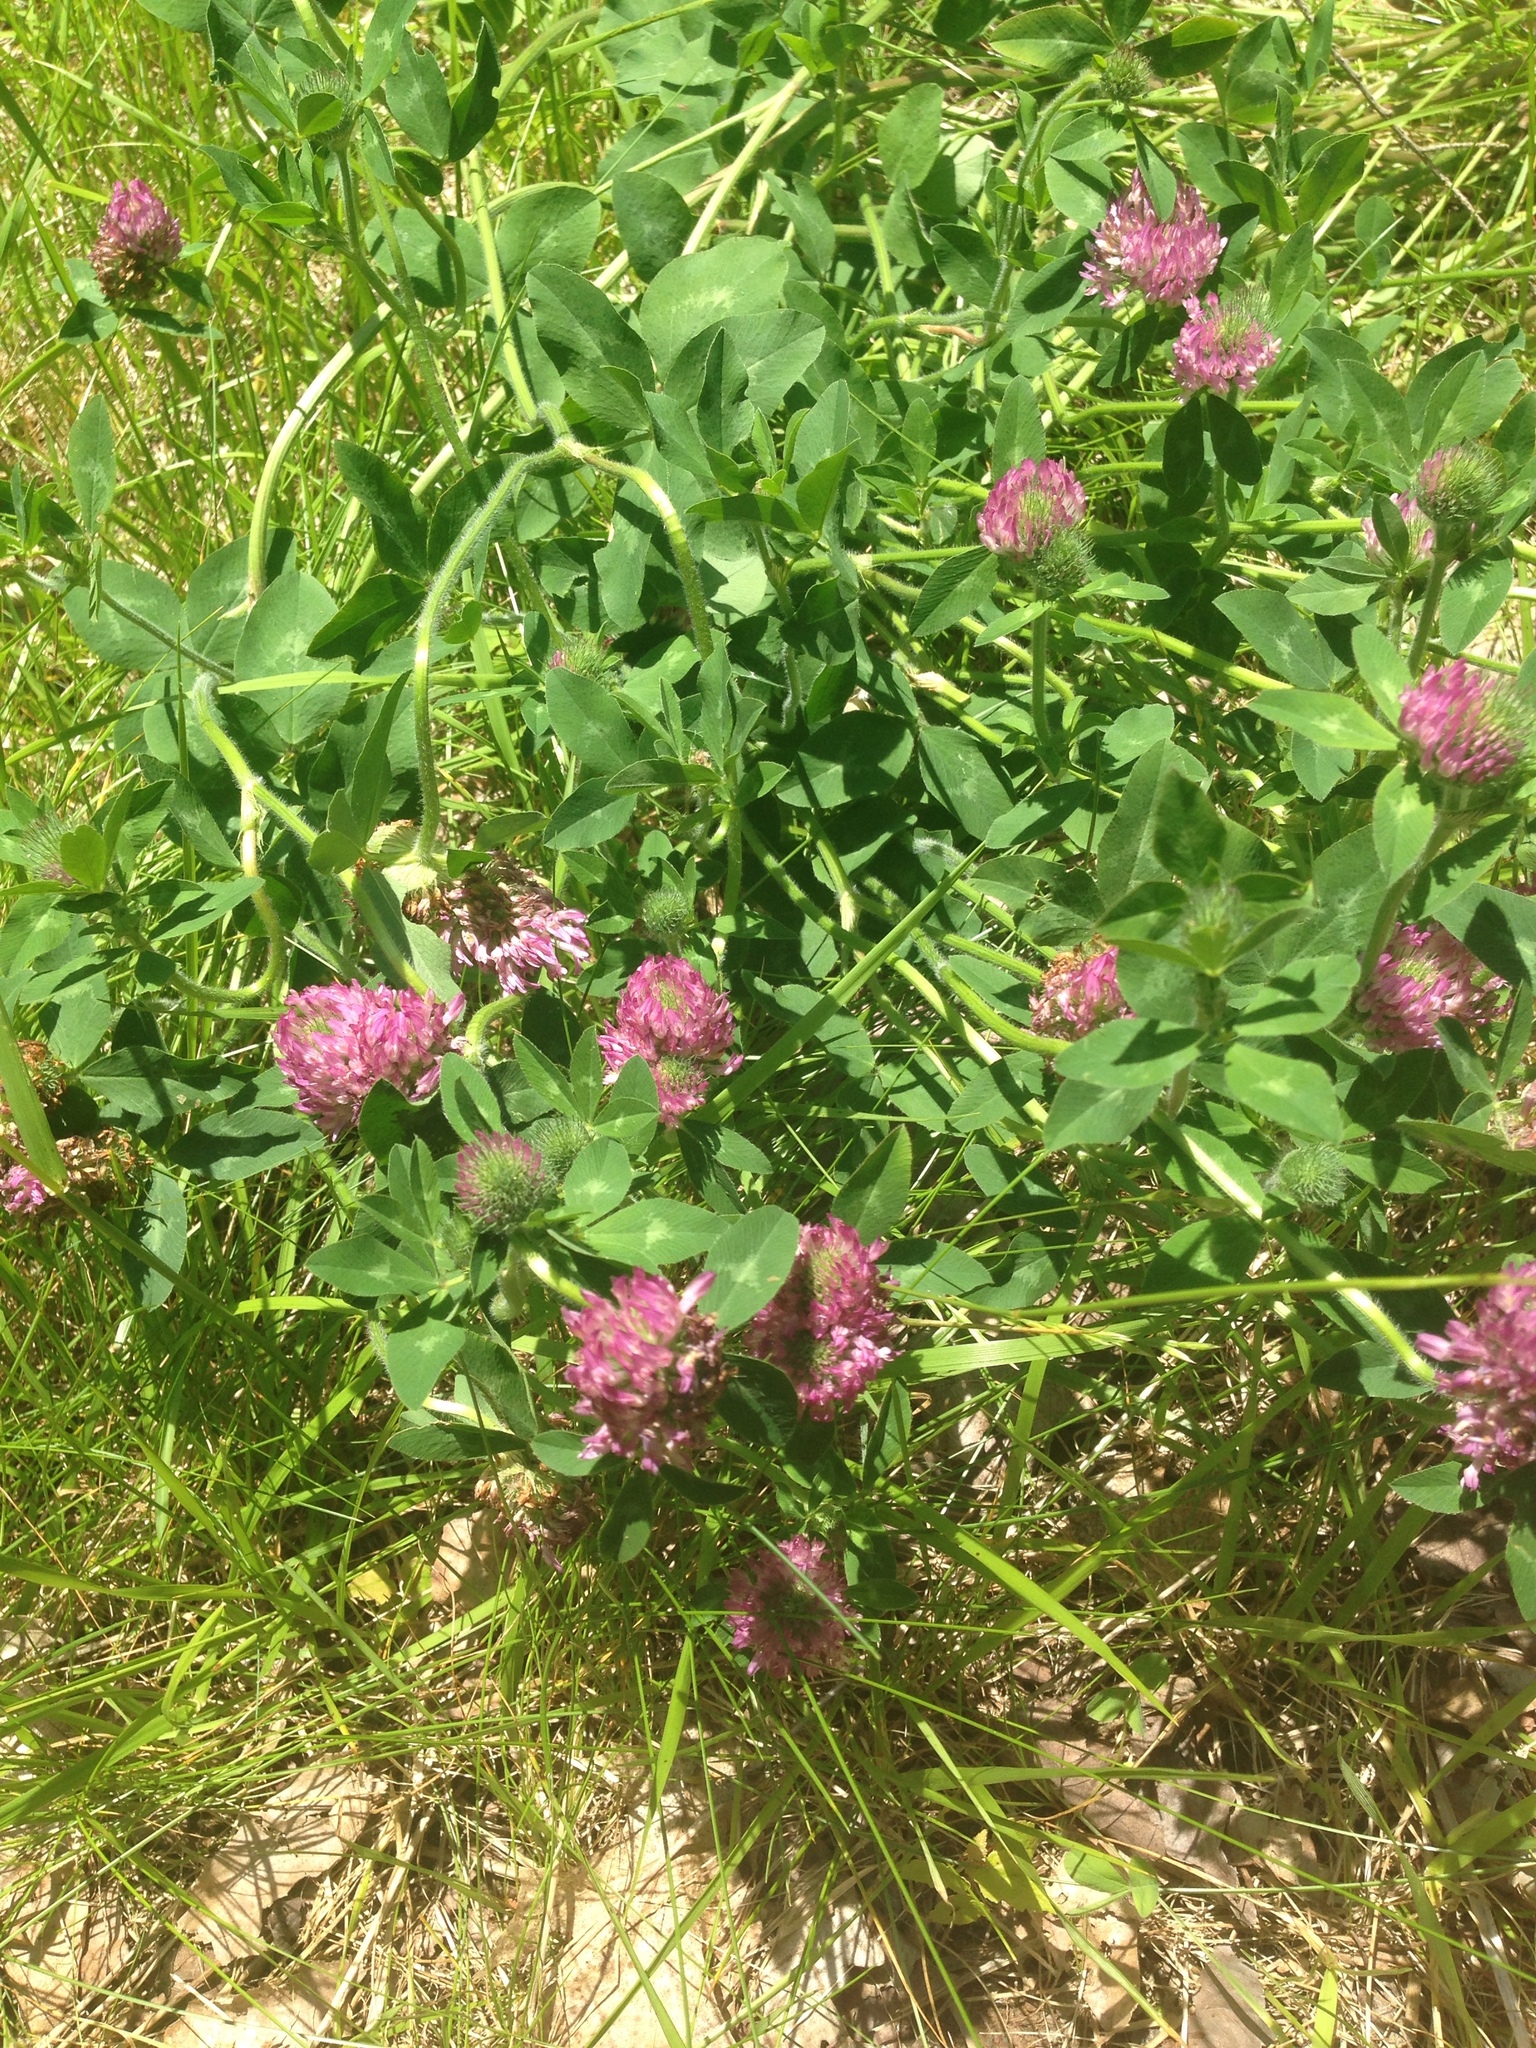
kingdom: Plantae
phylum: Tracheophyta
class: Magnoliopsida
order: Fabales
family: Fabaceae
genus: Trifolium
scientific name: Trifolium pratense
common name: Red clover
